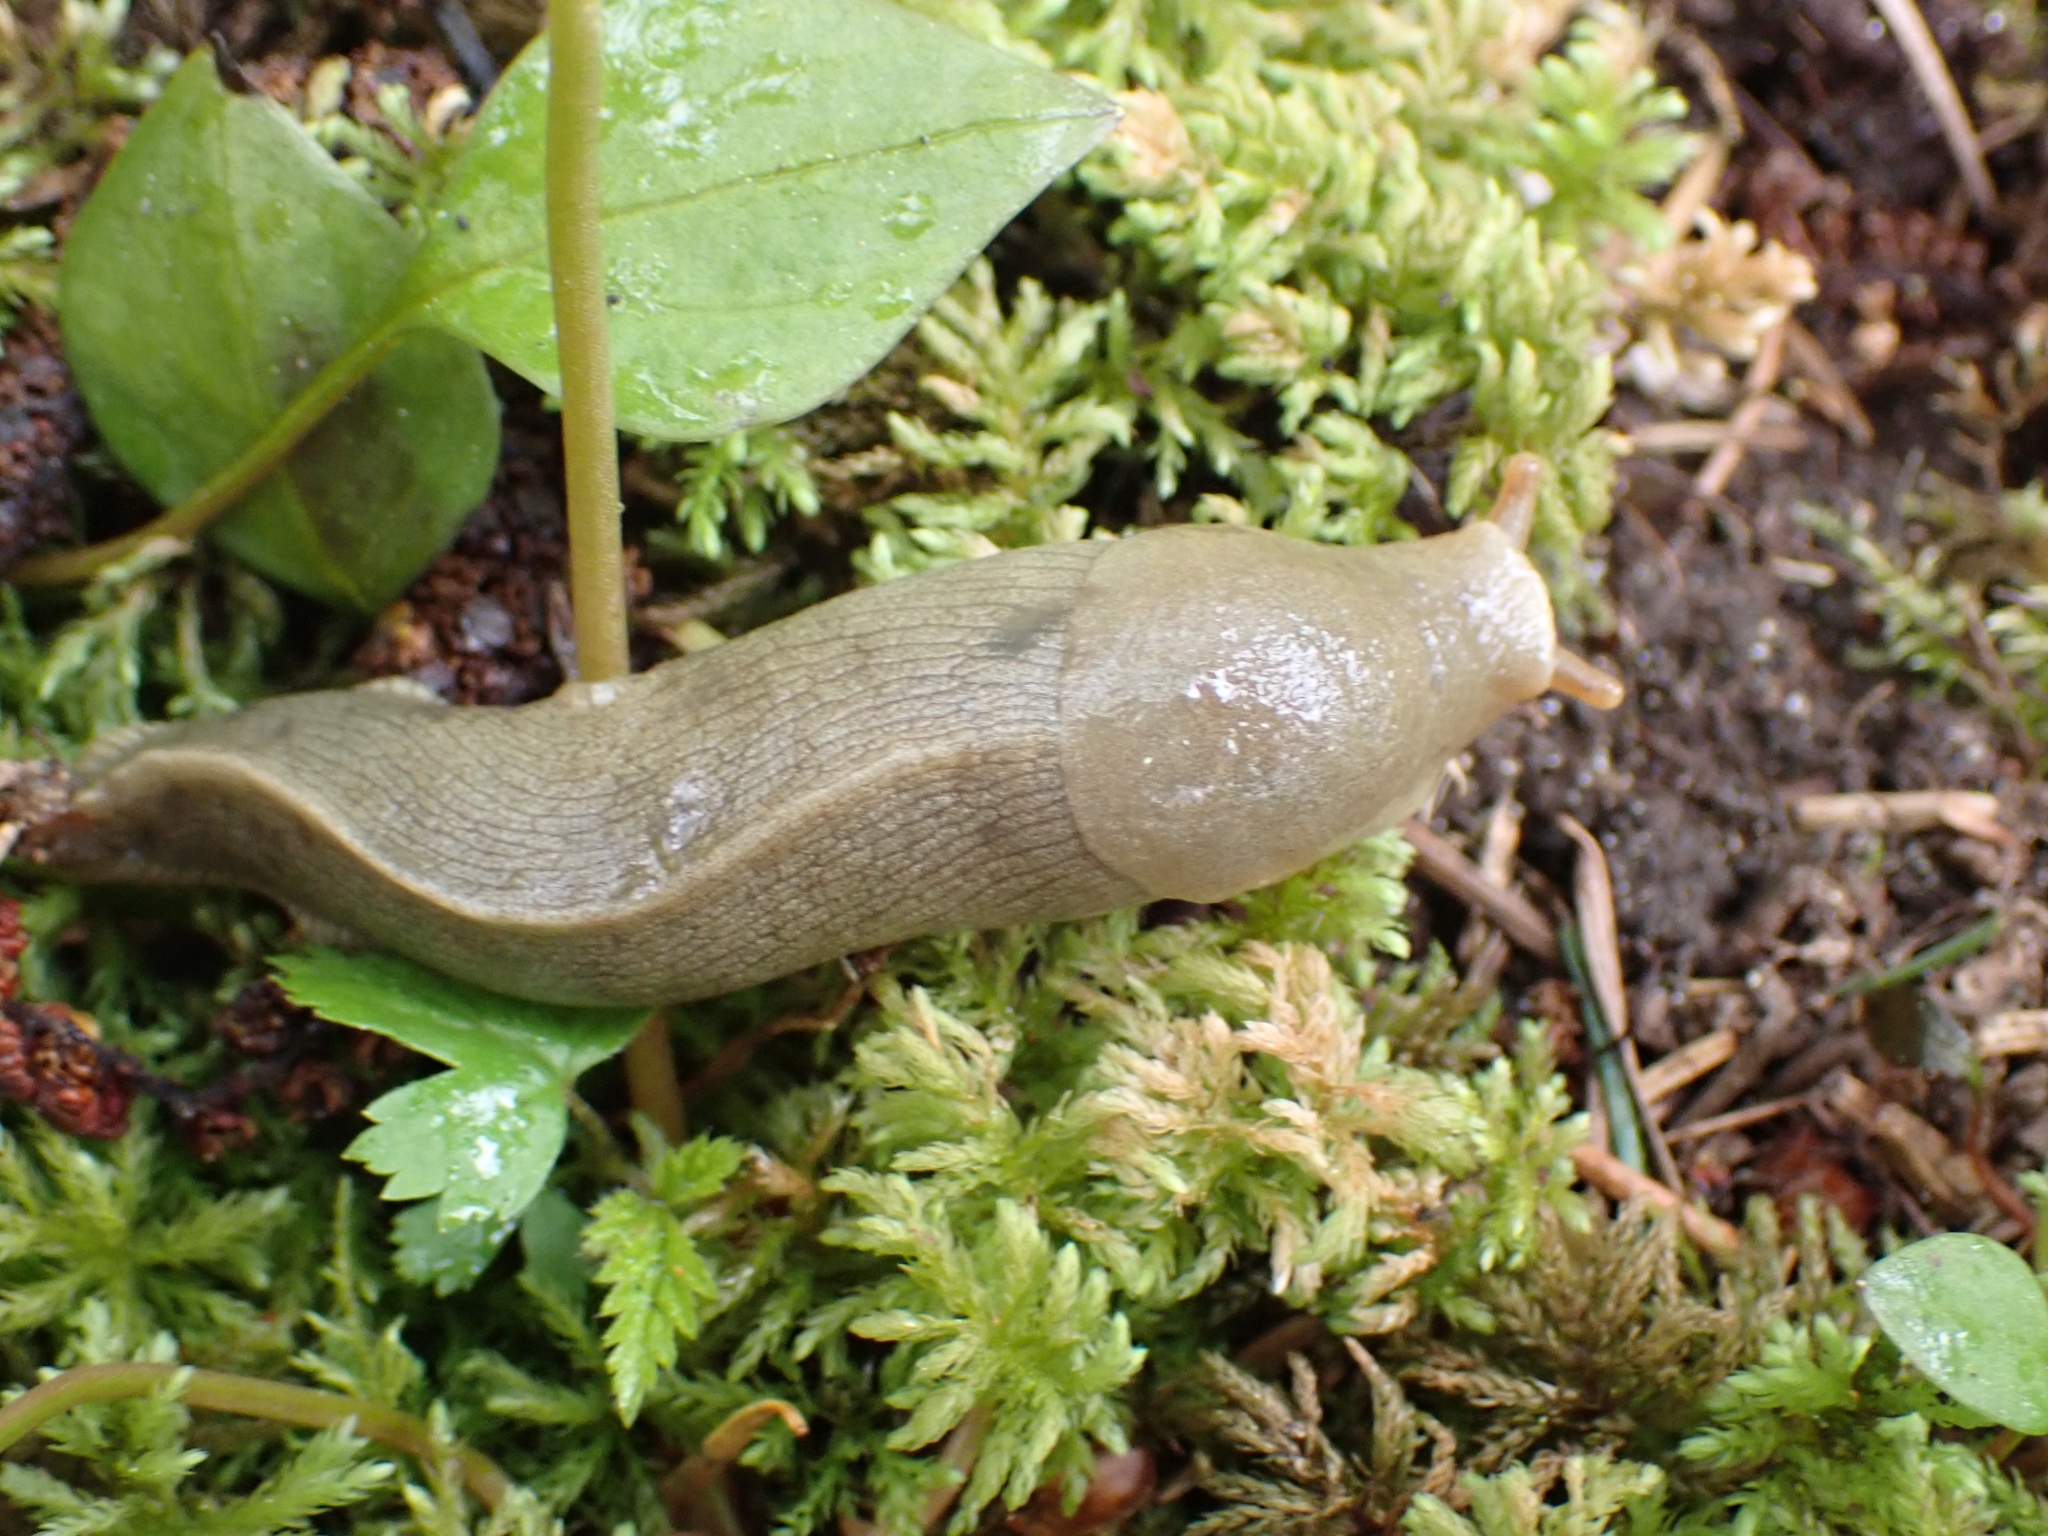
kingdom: Animalia
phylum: Mollusca
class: Gastropoda
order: Stylommatophora
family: Ariolimacidae
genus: Ariolimax
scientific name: Ariolimax columbianus
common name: Pacific banana slug
